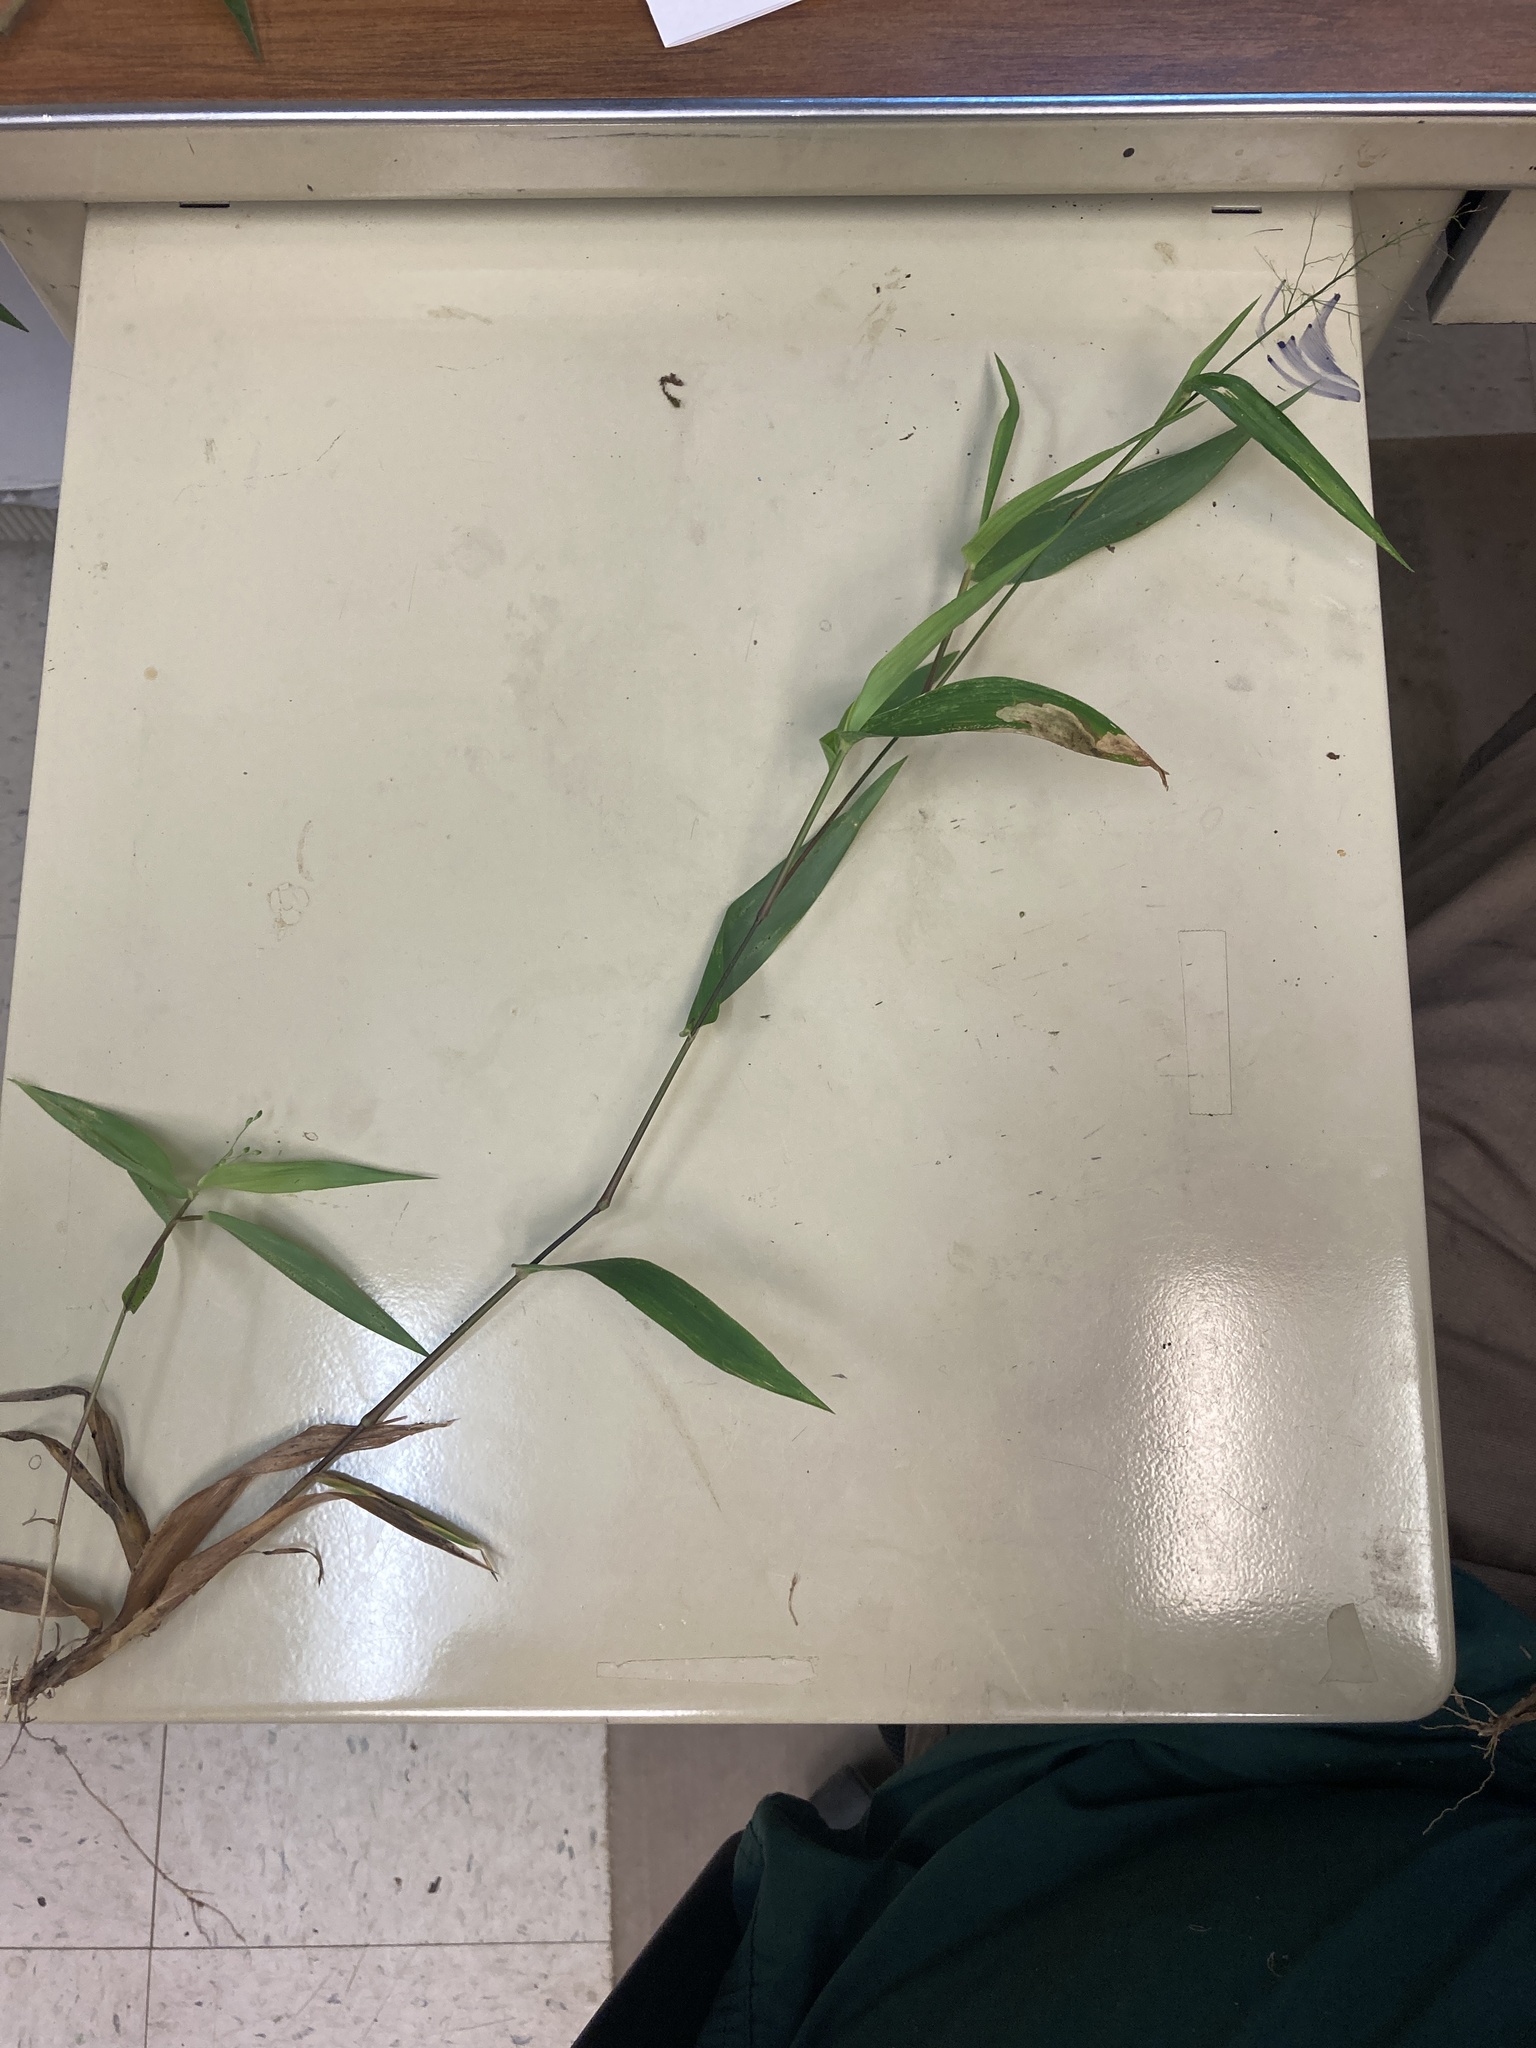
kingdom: Plantae
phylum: Tracheophyta
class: Liliopsida
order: Poales
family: Poaceae
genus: Dichanthelium
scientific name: Dichanthelium commutatum
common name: Variable witchgrass
